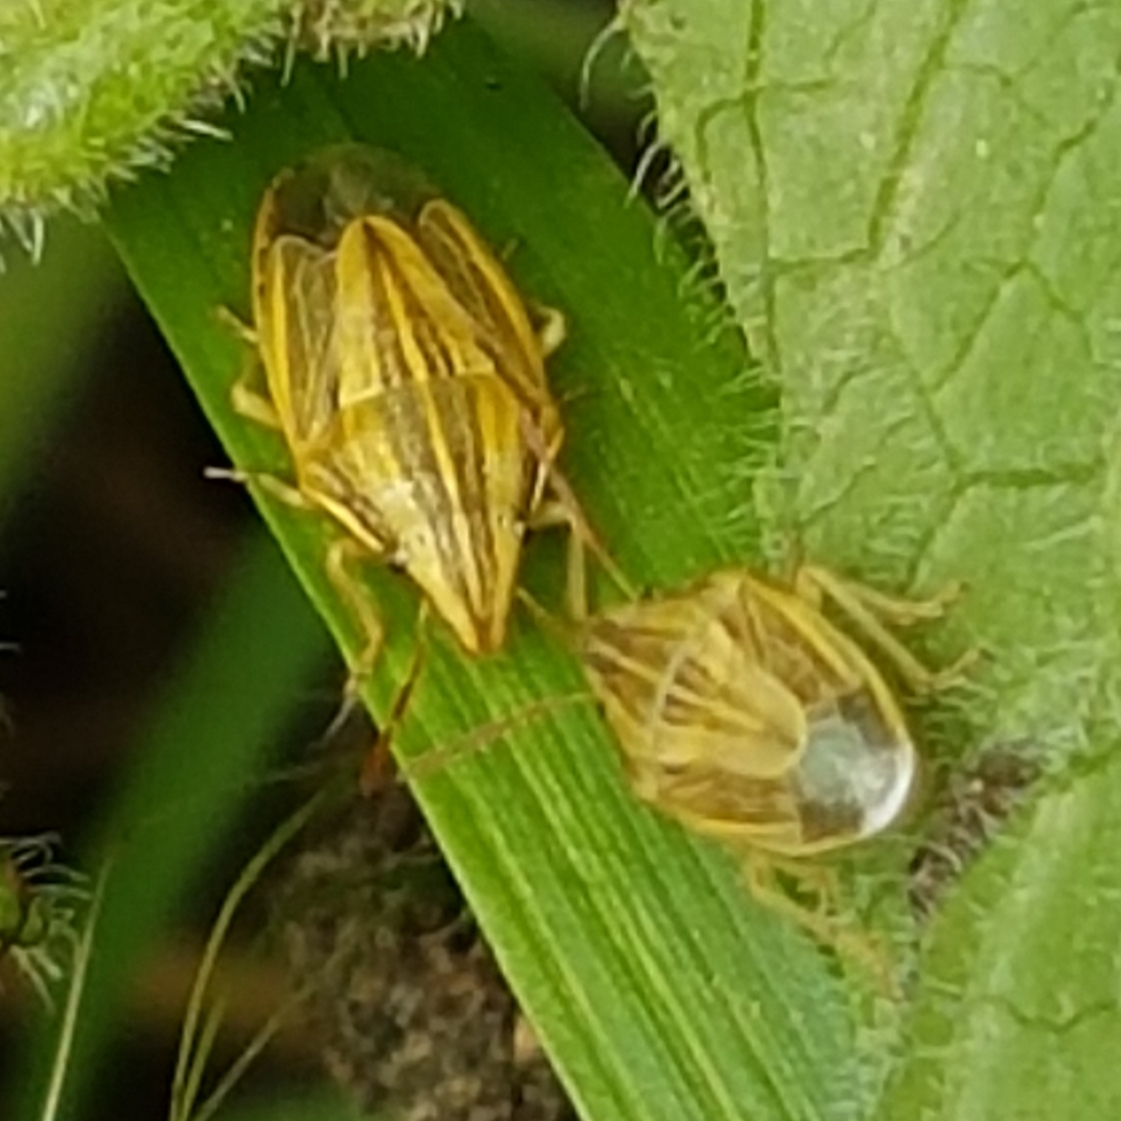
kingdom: Animalia
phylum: Arthropoda
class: Insecta
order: Hemiptera
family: Pentatomidae
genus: Aelia
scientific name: Aelia acuminata
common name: Bishop's mitre
